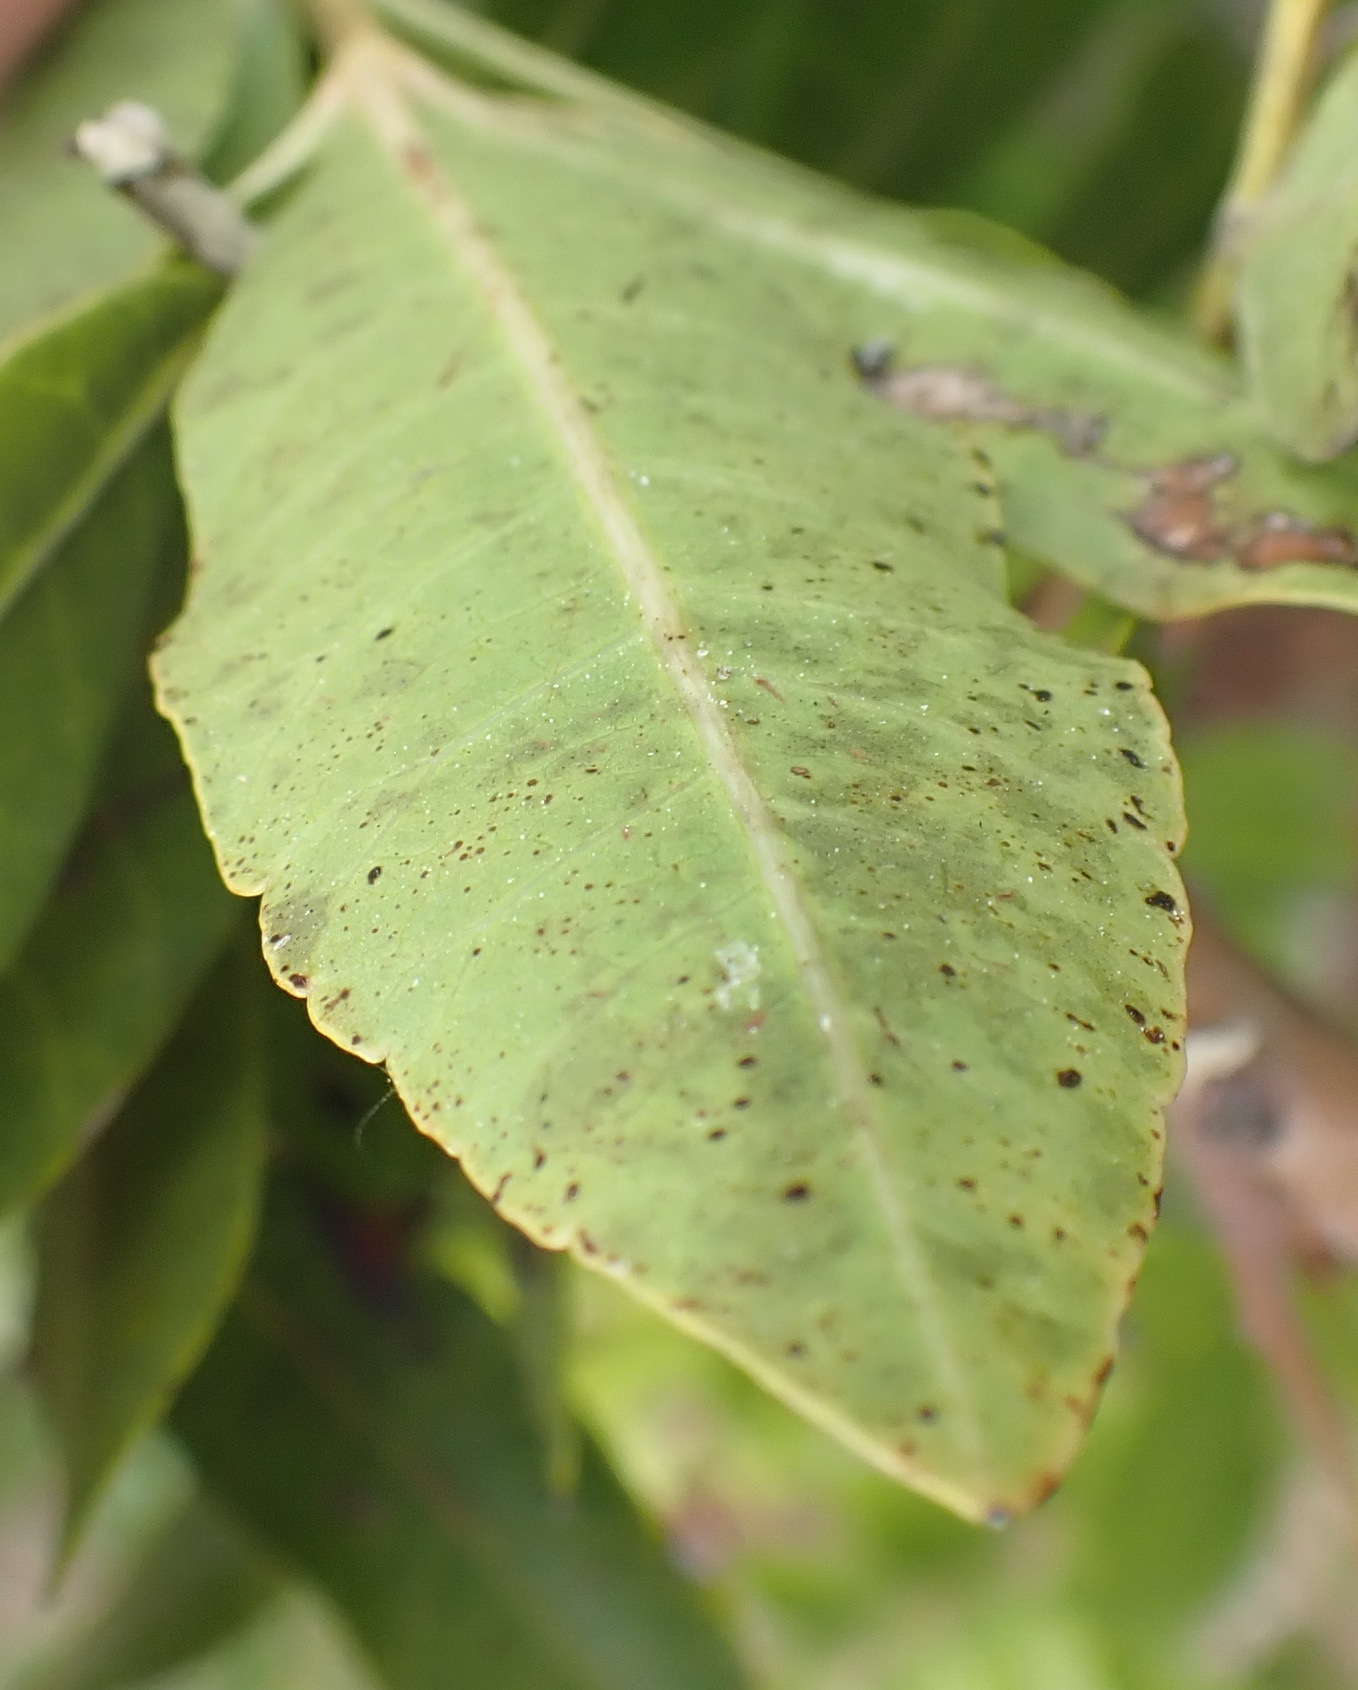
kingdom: Plantae
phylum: Tracheophyta
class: Magnoliopsida
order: Sapindales
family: Anacardiaceae
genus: Schinus
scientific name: Schinus terebinthifolia
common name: Brazilian peppertree
